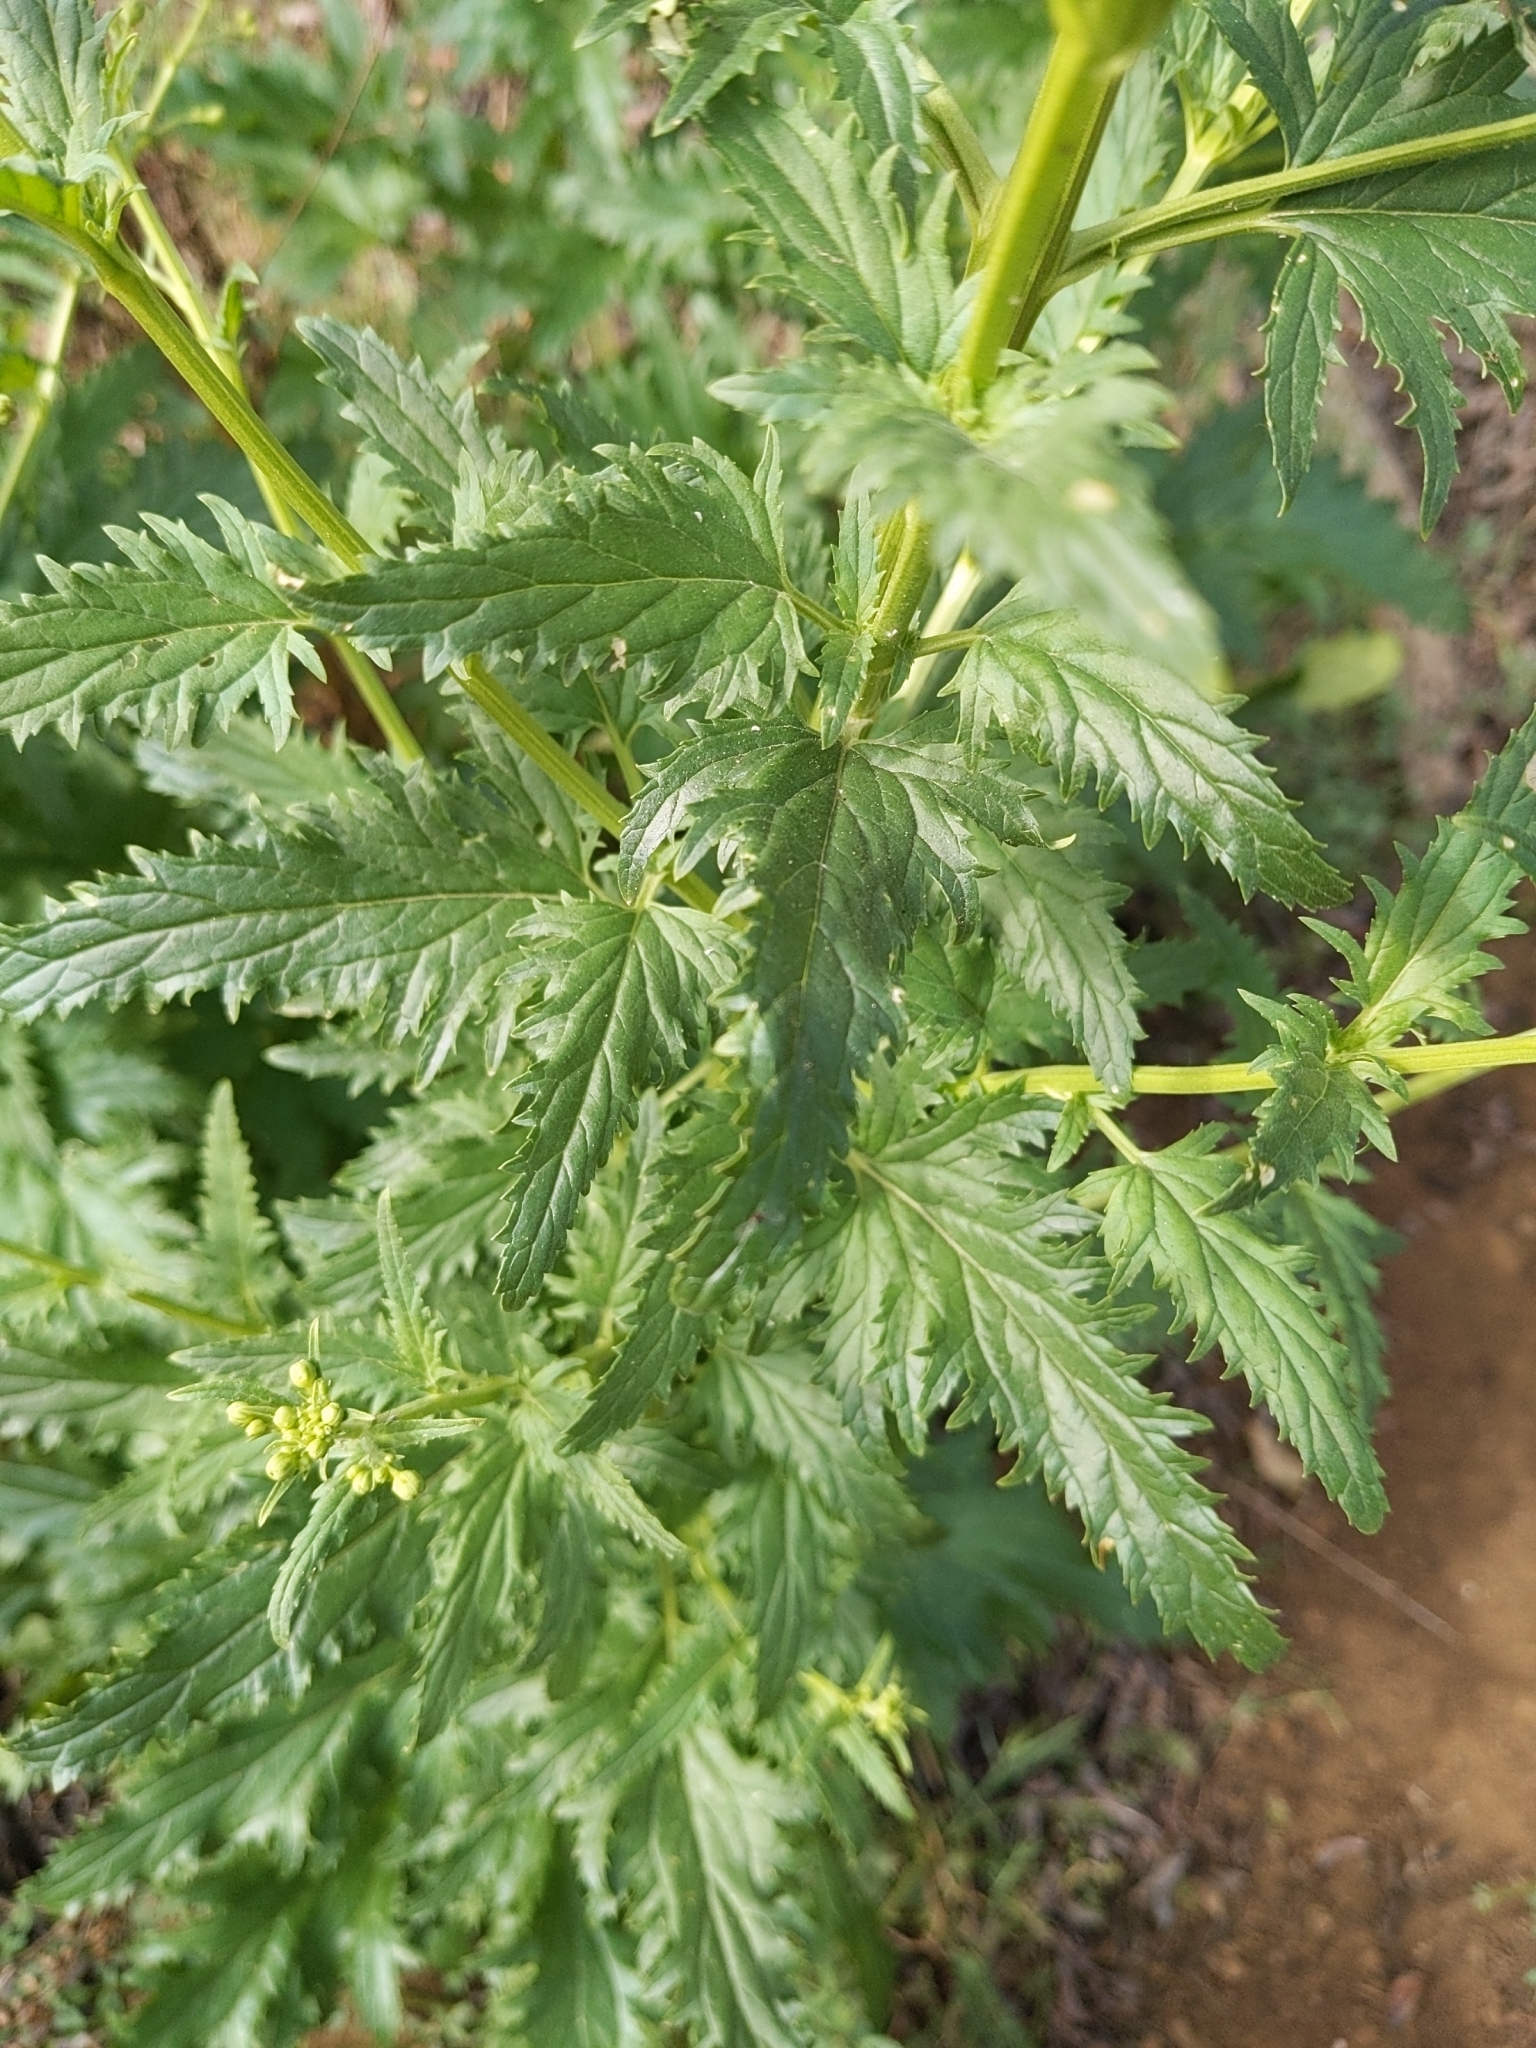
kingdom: Plantae
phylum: Tracheophyta
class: Magnoliopsida
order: Lamiales
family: Scrophulariaceae
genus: Scrophularia
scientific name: Scrophularia californica
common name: California figwort
